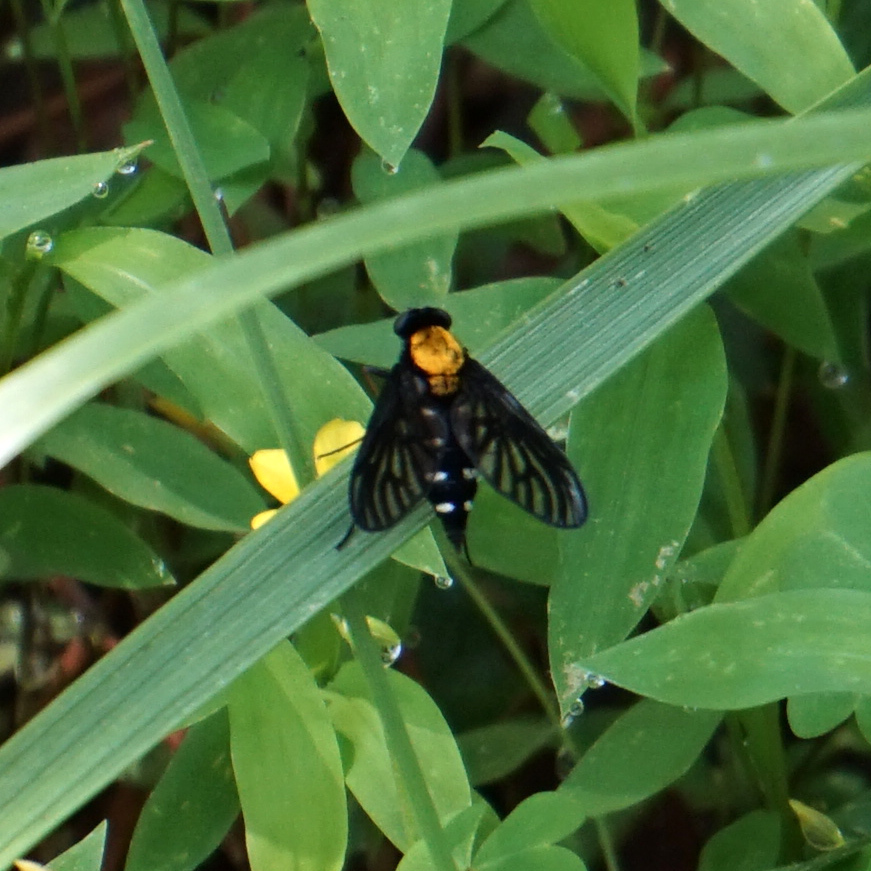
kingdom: Animalia
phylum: Arthropoda
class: Insecta
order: Diptera
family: Rhagionidae
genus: Chrysopilus
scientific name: Chrysopilus thoracicus
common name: Golden-backed snipe fly
